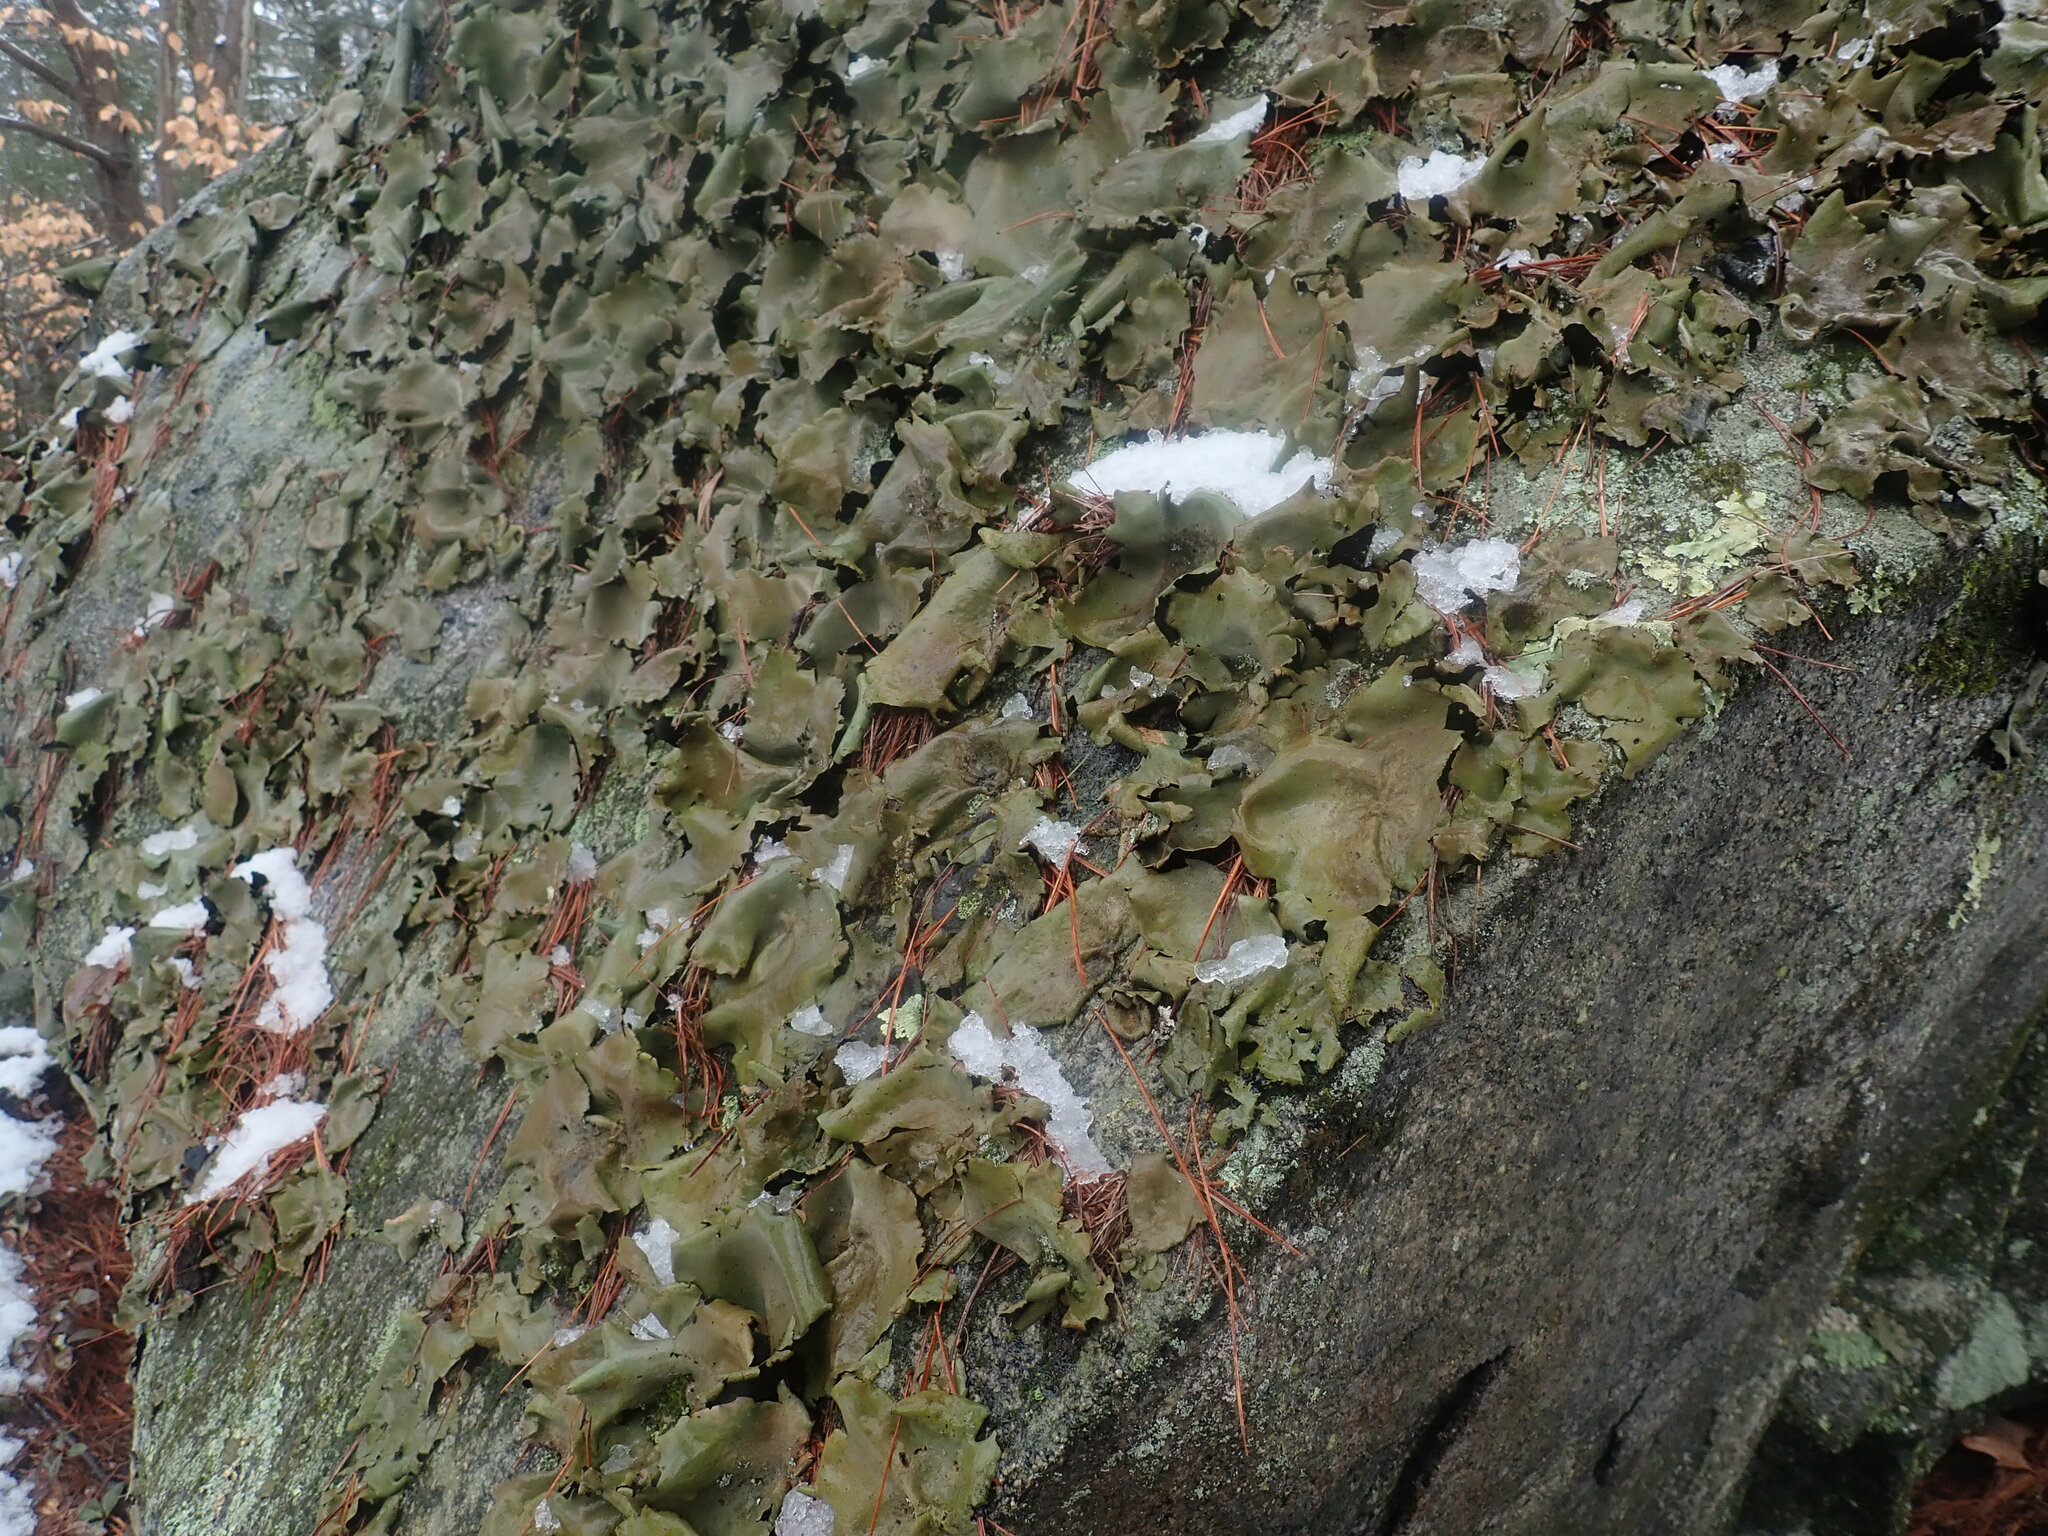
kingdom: Fungi
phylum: Ascomycota
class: Lecanoromycetes
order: Umbilicariales
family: Umbilicariaceae
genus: Umbilicaria
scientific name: Umbilicaria mammulata
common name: Smooth rock tripe
